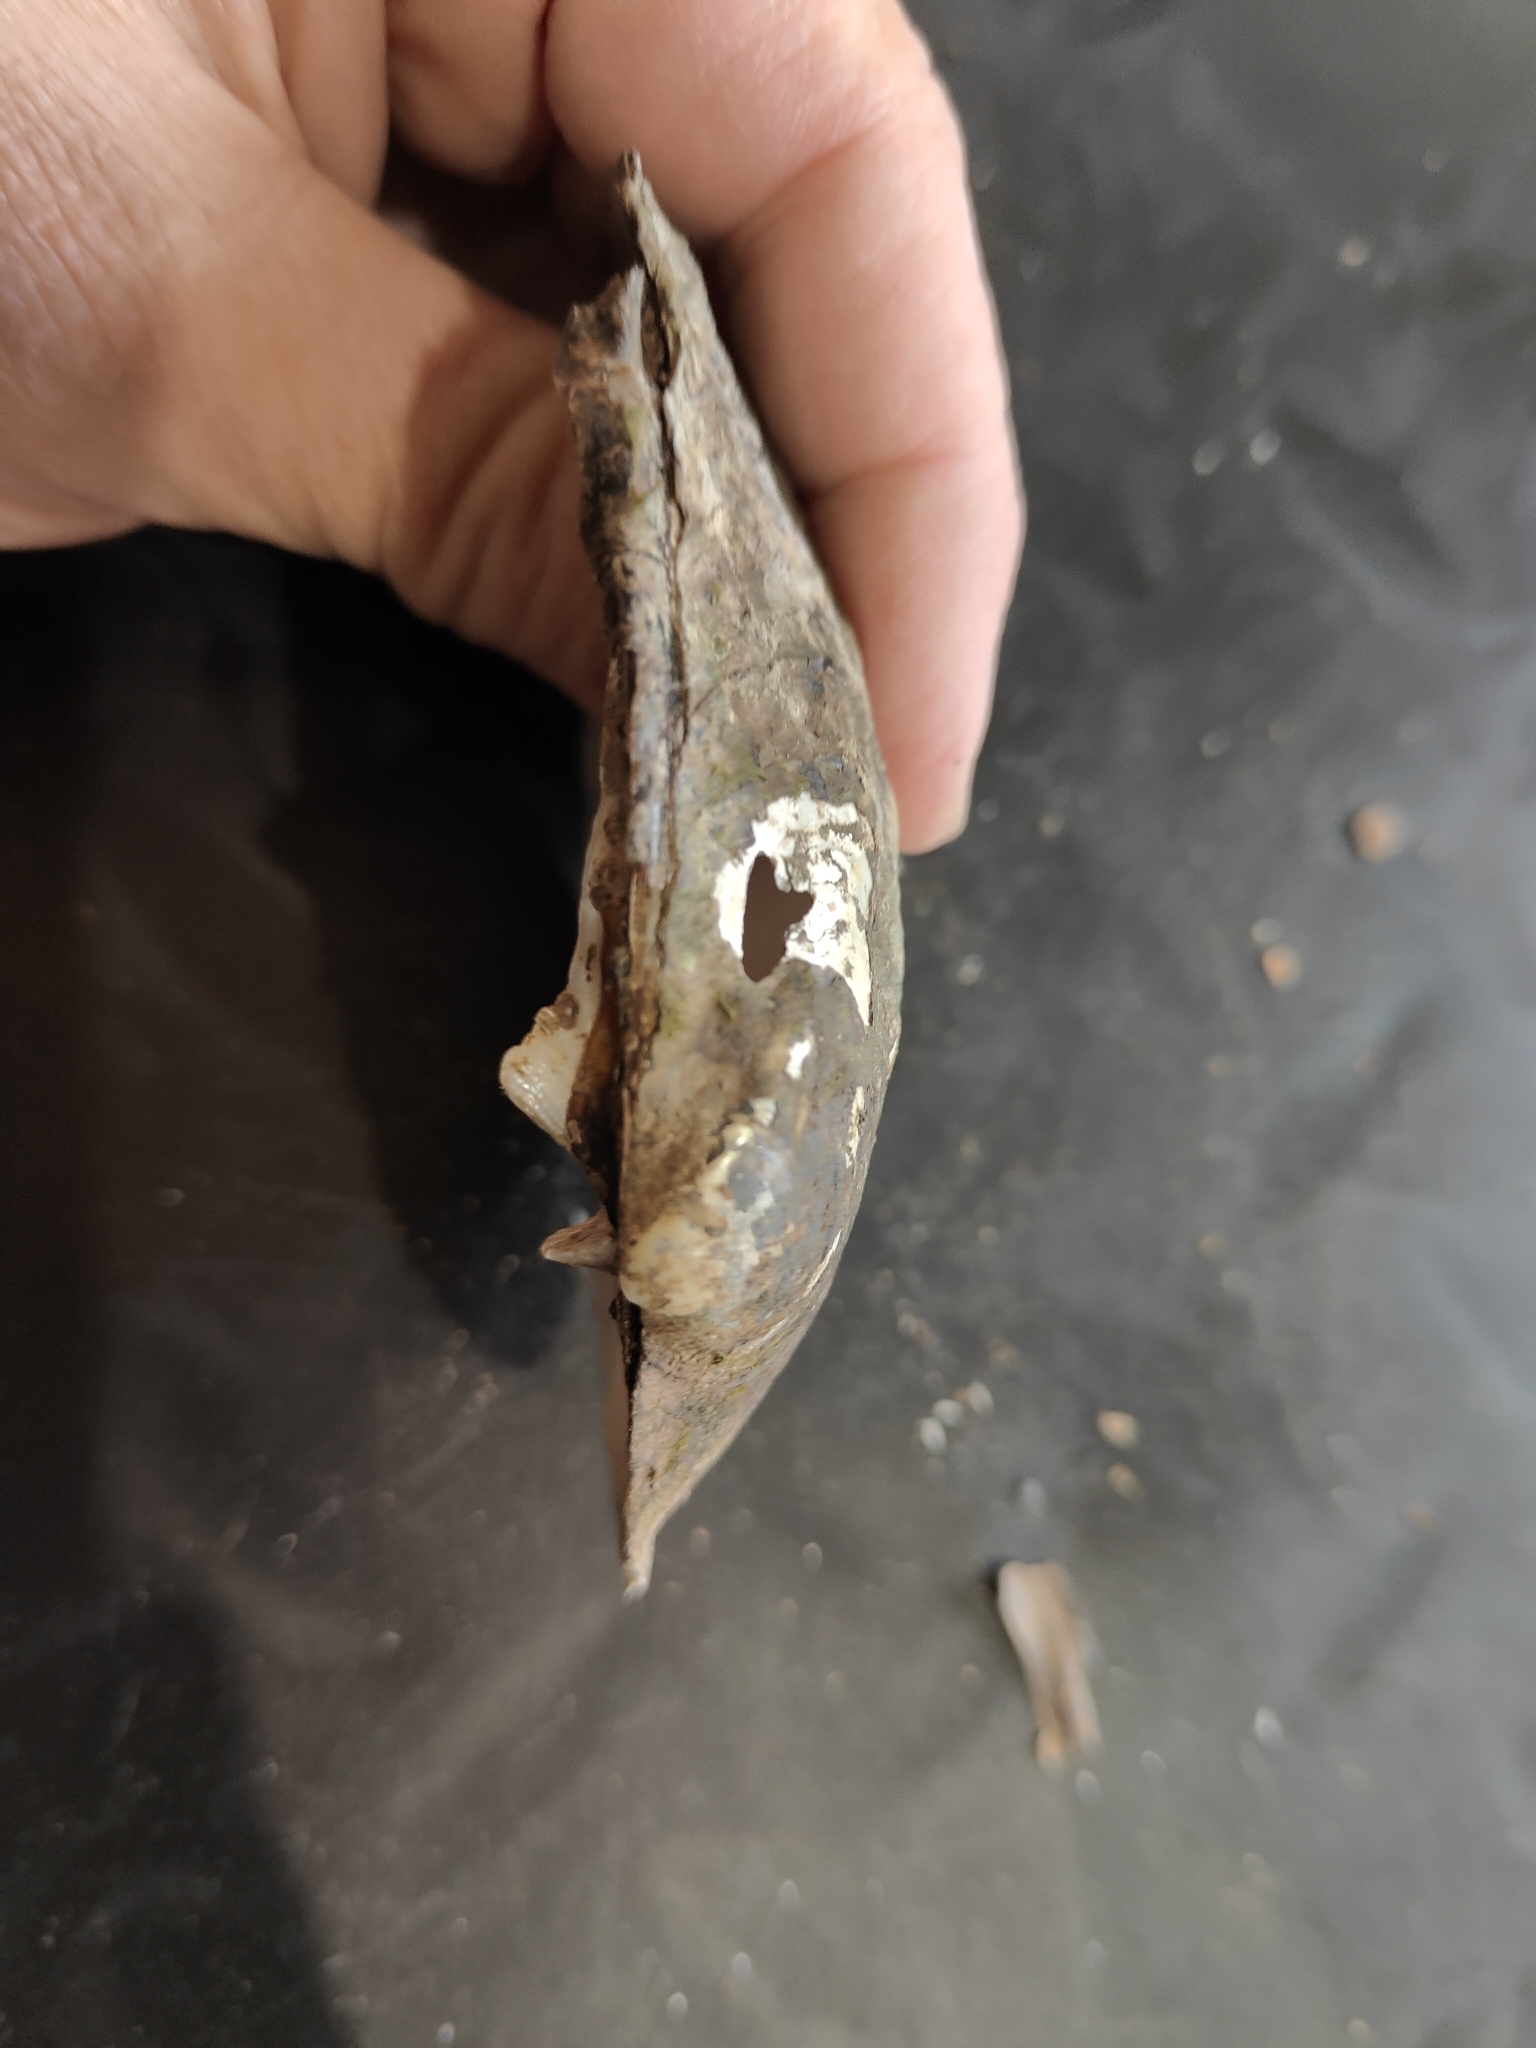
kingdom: Animalia
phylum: Mollusca
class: Bivalvia
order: Unionida
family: Unionidae
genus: Amblema
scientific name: Amblema plicata
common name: Threeridge
